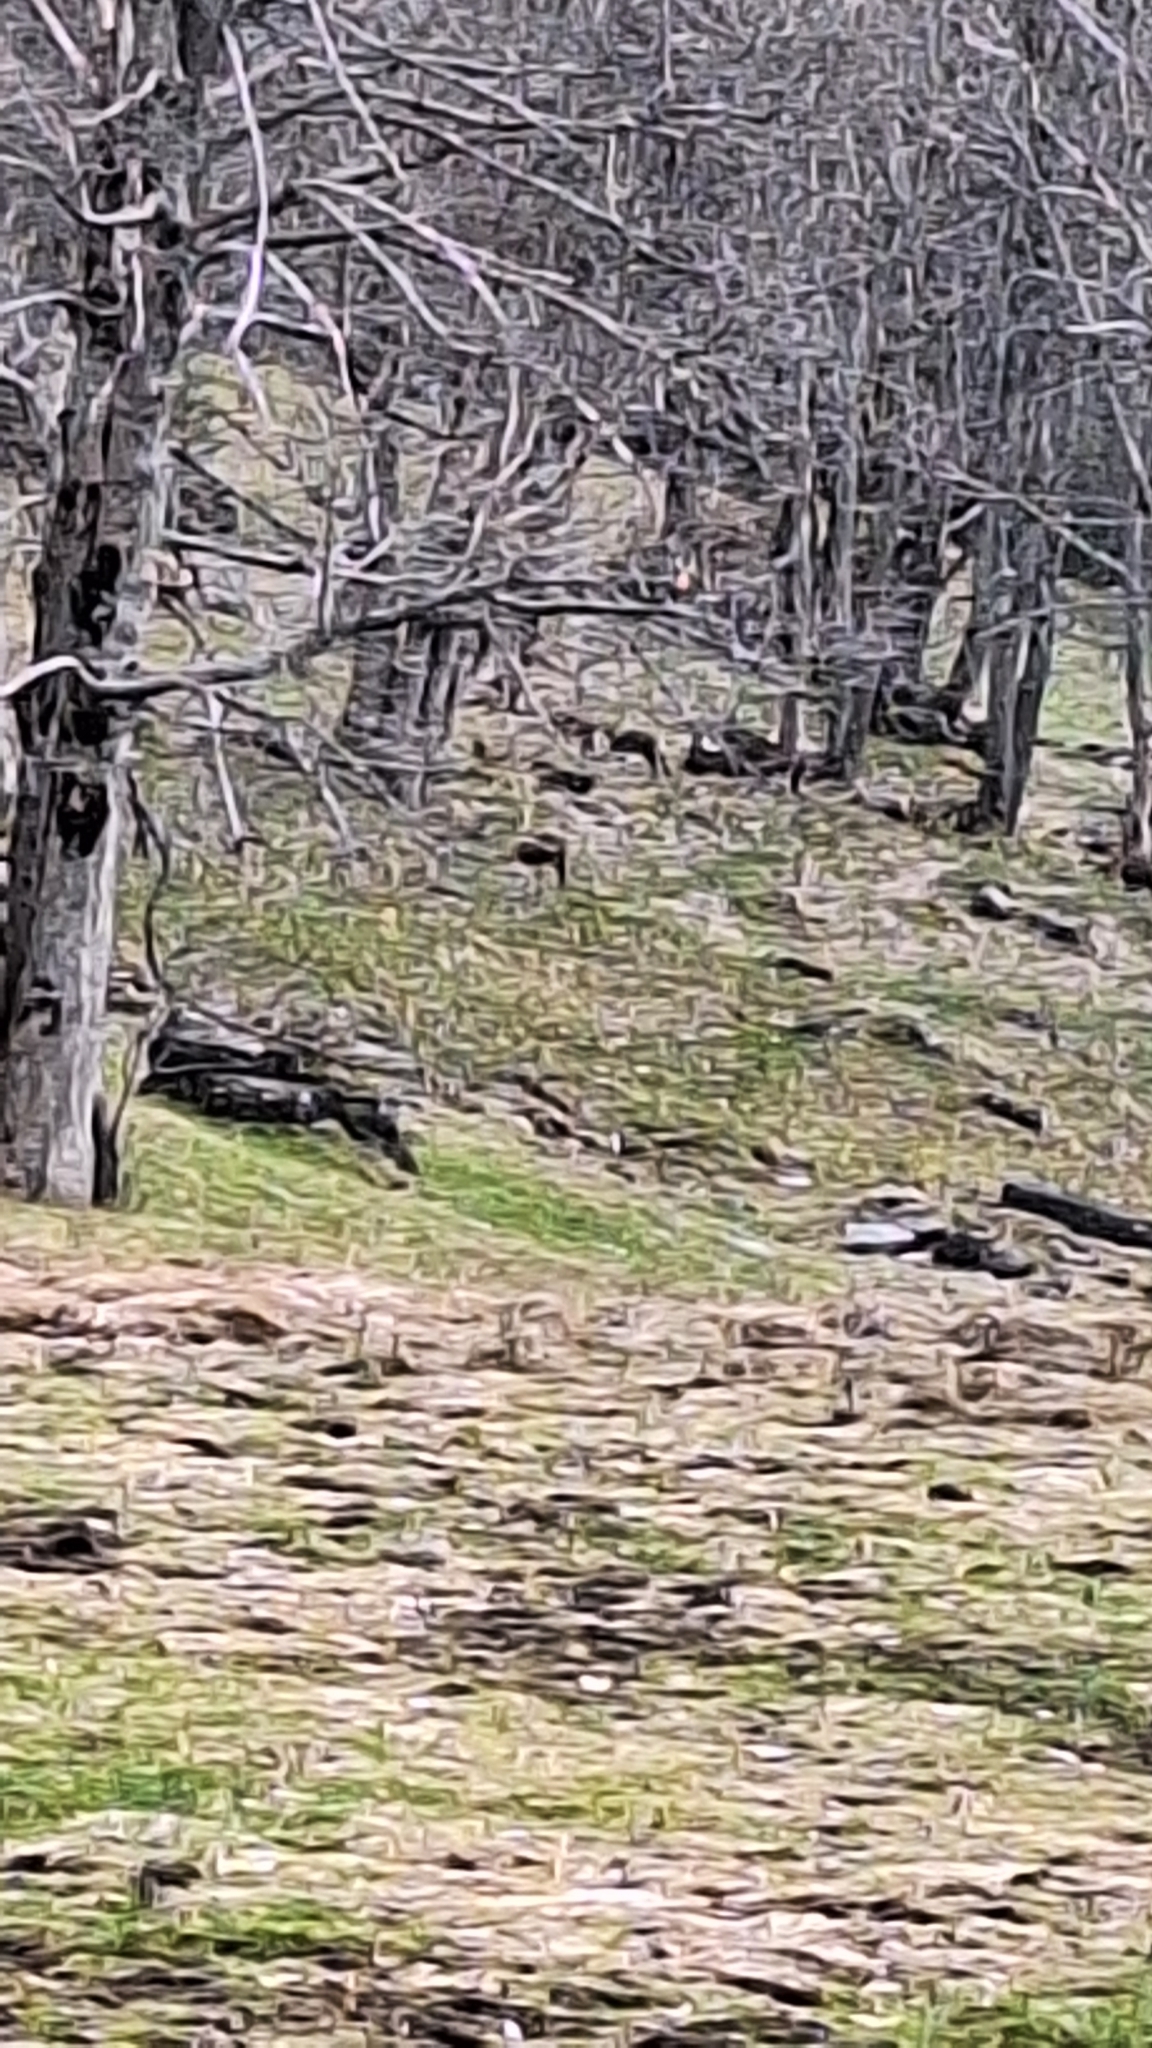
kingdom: Animalia
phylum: Chordata
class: Mammalia
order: Artiodactyla
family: Bovidae
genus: Rupicapra
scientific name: Rupicapra rupicapra
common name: Chamois
